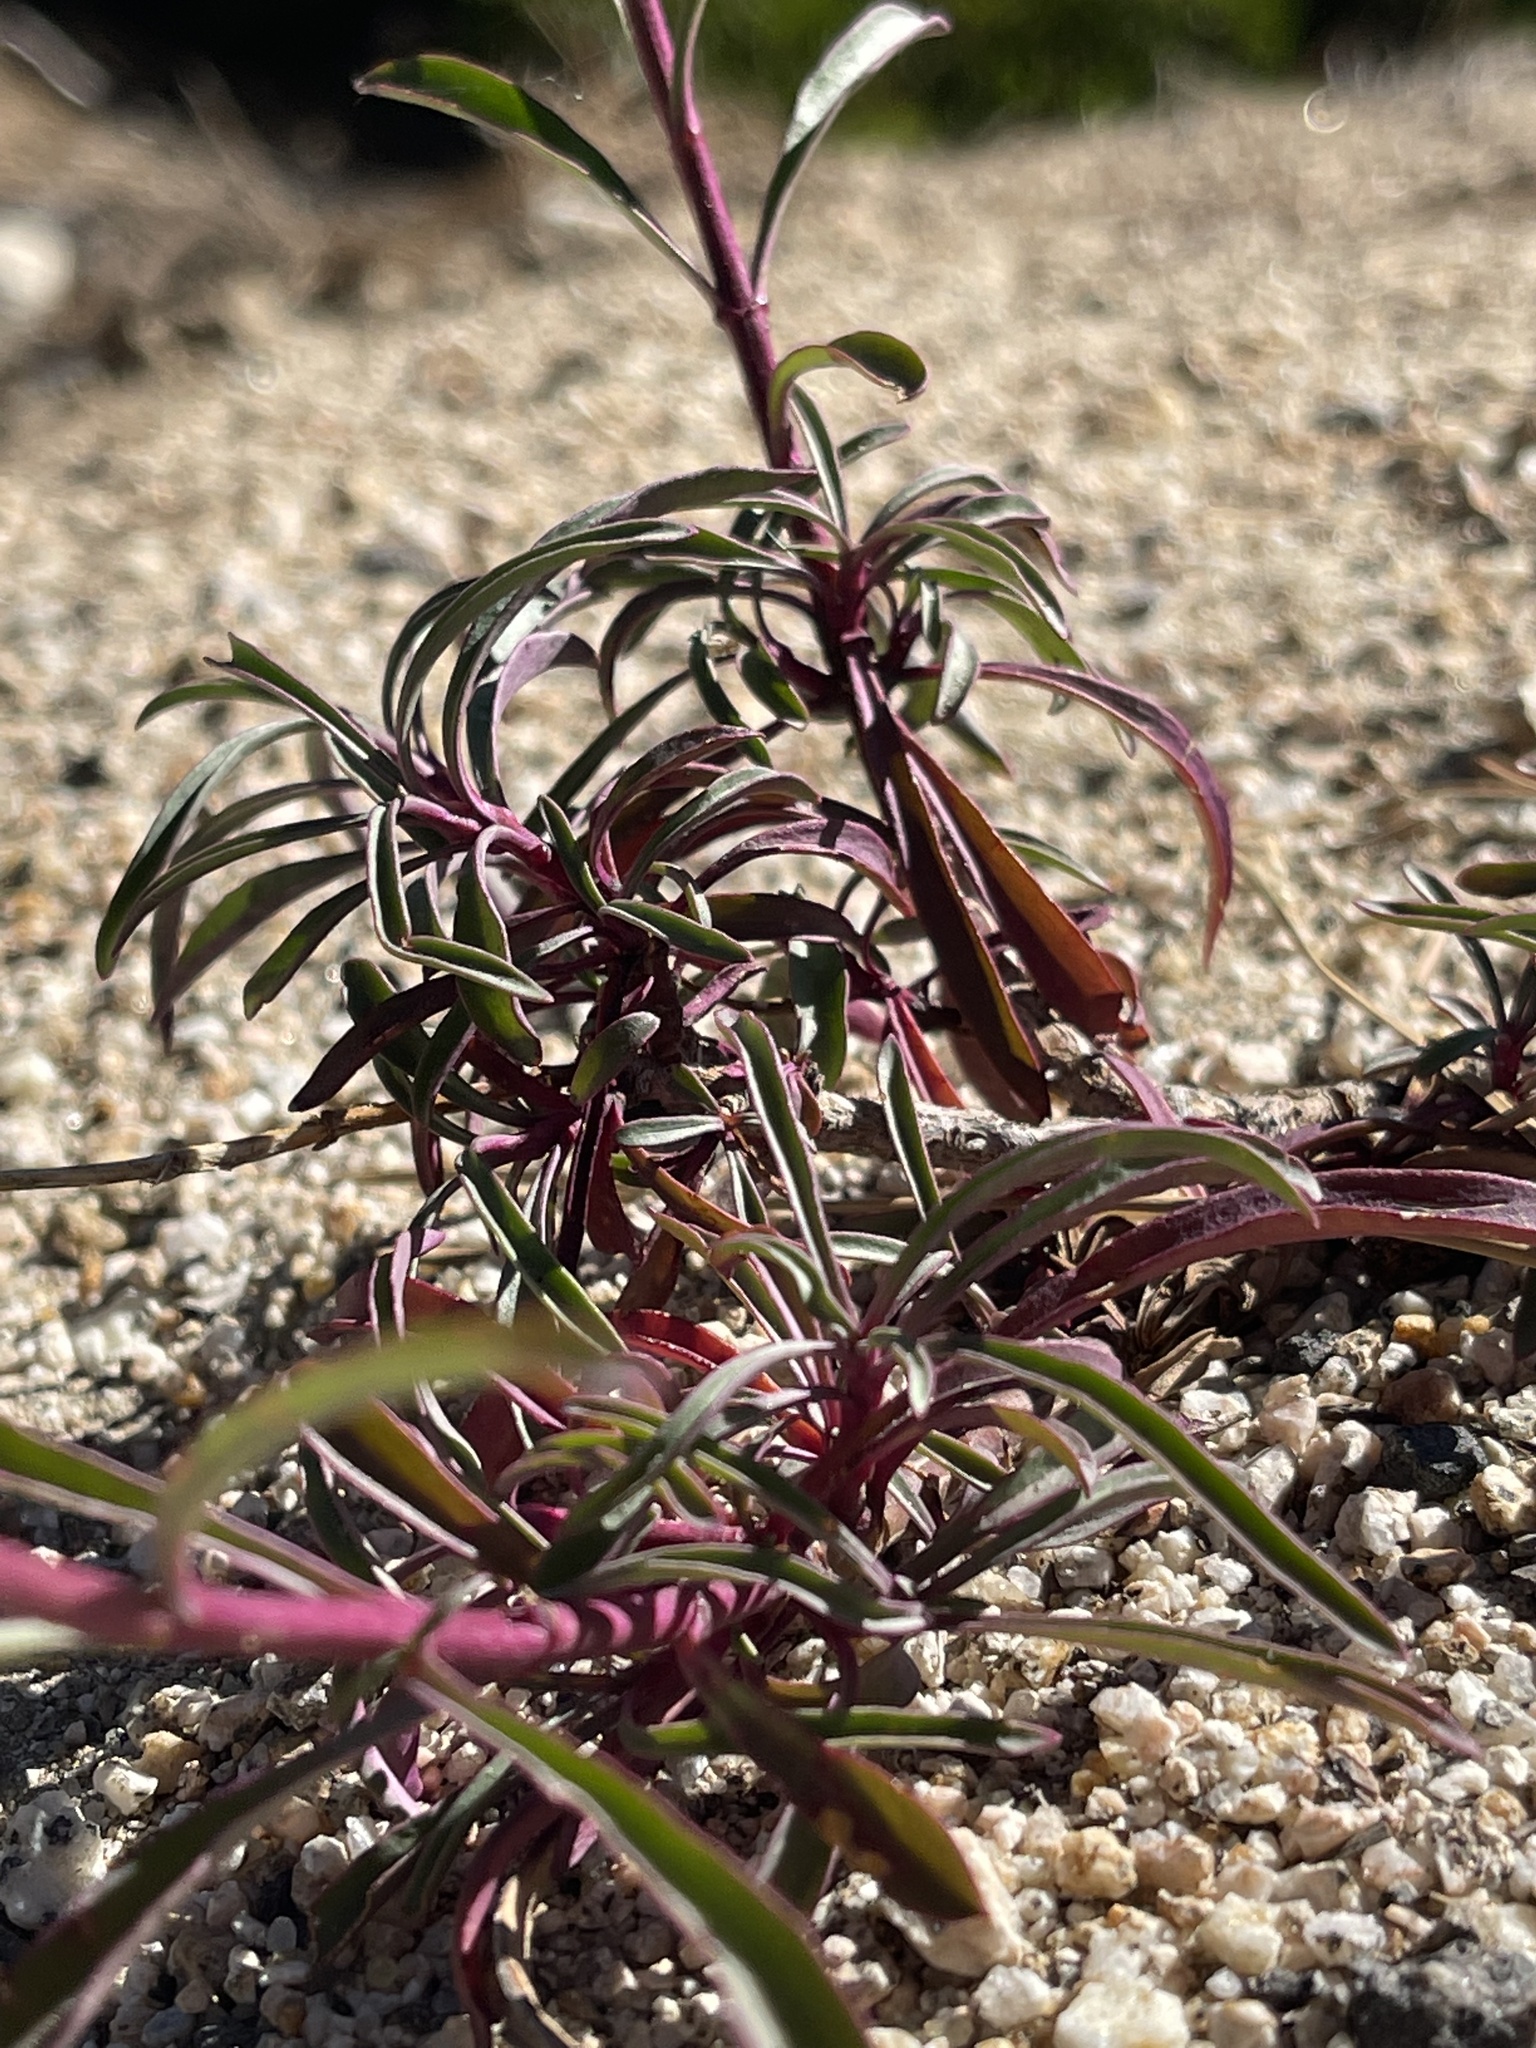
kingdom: Plantae
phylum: Tracheophyta
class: Magnoliopsida
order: Lamiales
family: Plantaginaceae
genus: Penstemon
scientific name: Penstemon labrosus
